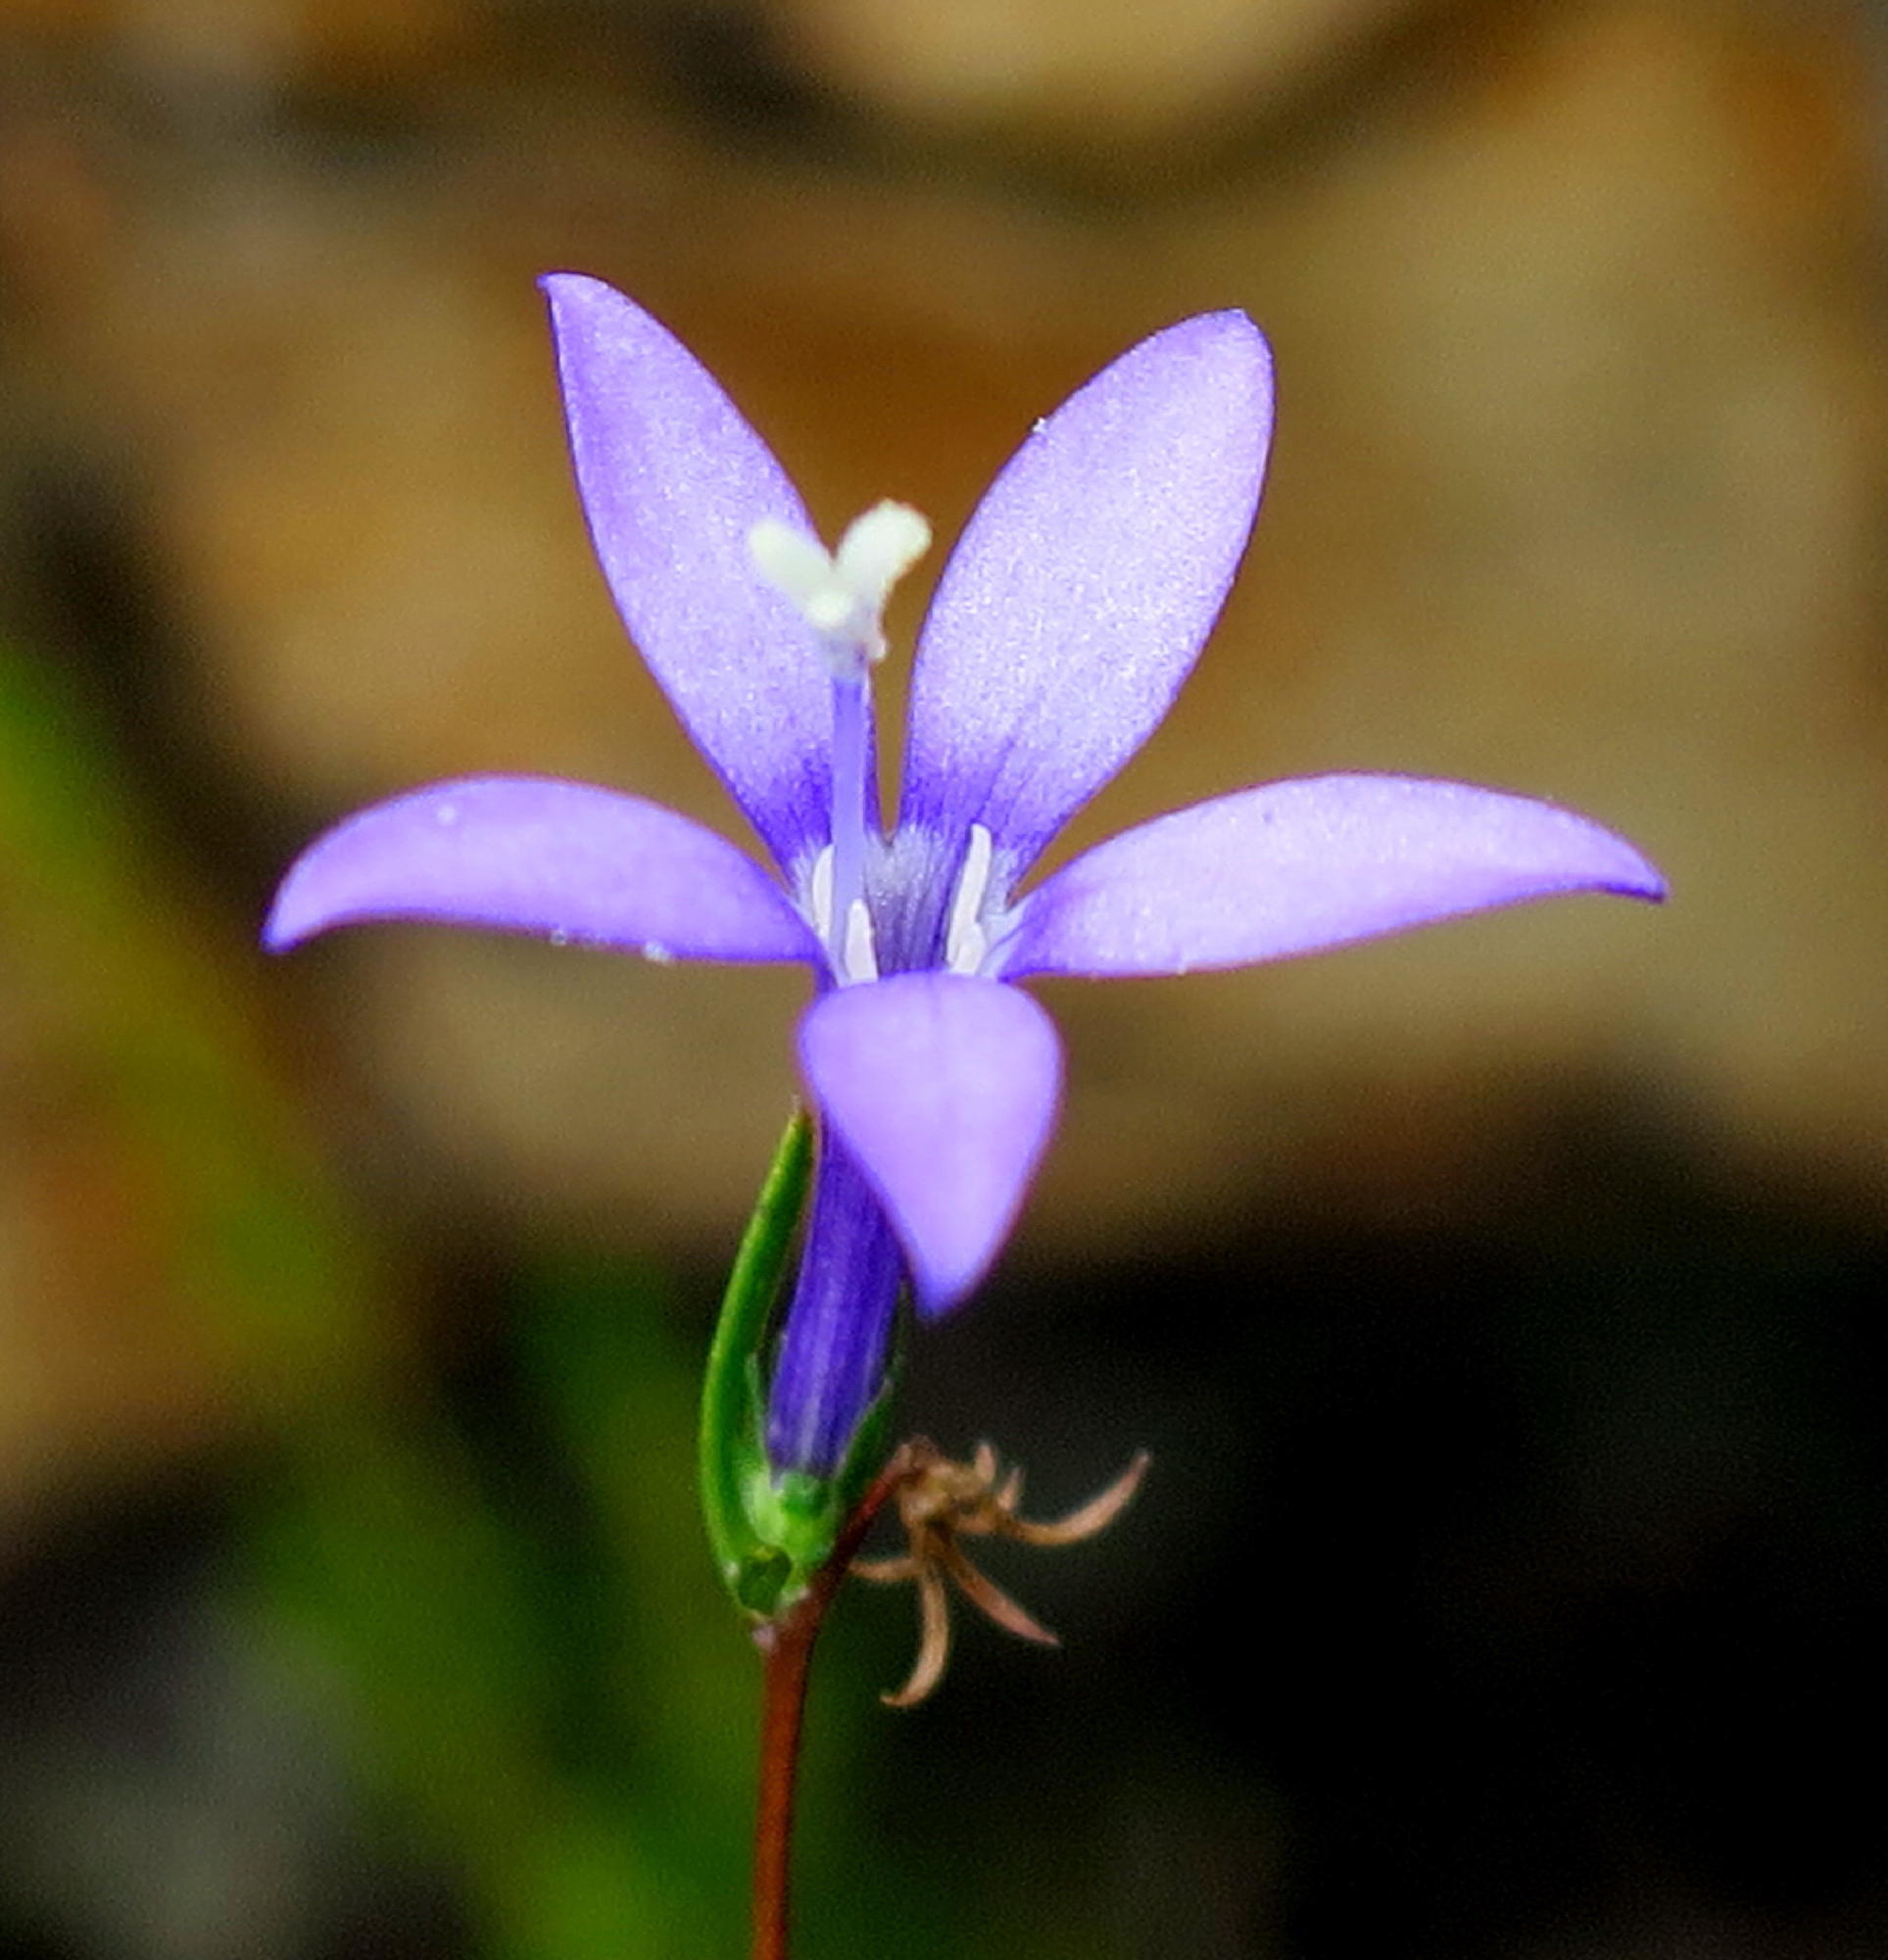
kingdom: Plantae
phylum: Tracheophyta
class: Magnoliopsida
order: Asterales
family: Campanulaceae
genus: Theilera
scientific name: Theilera guthriei
